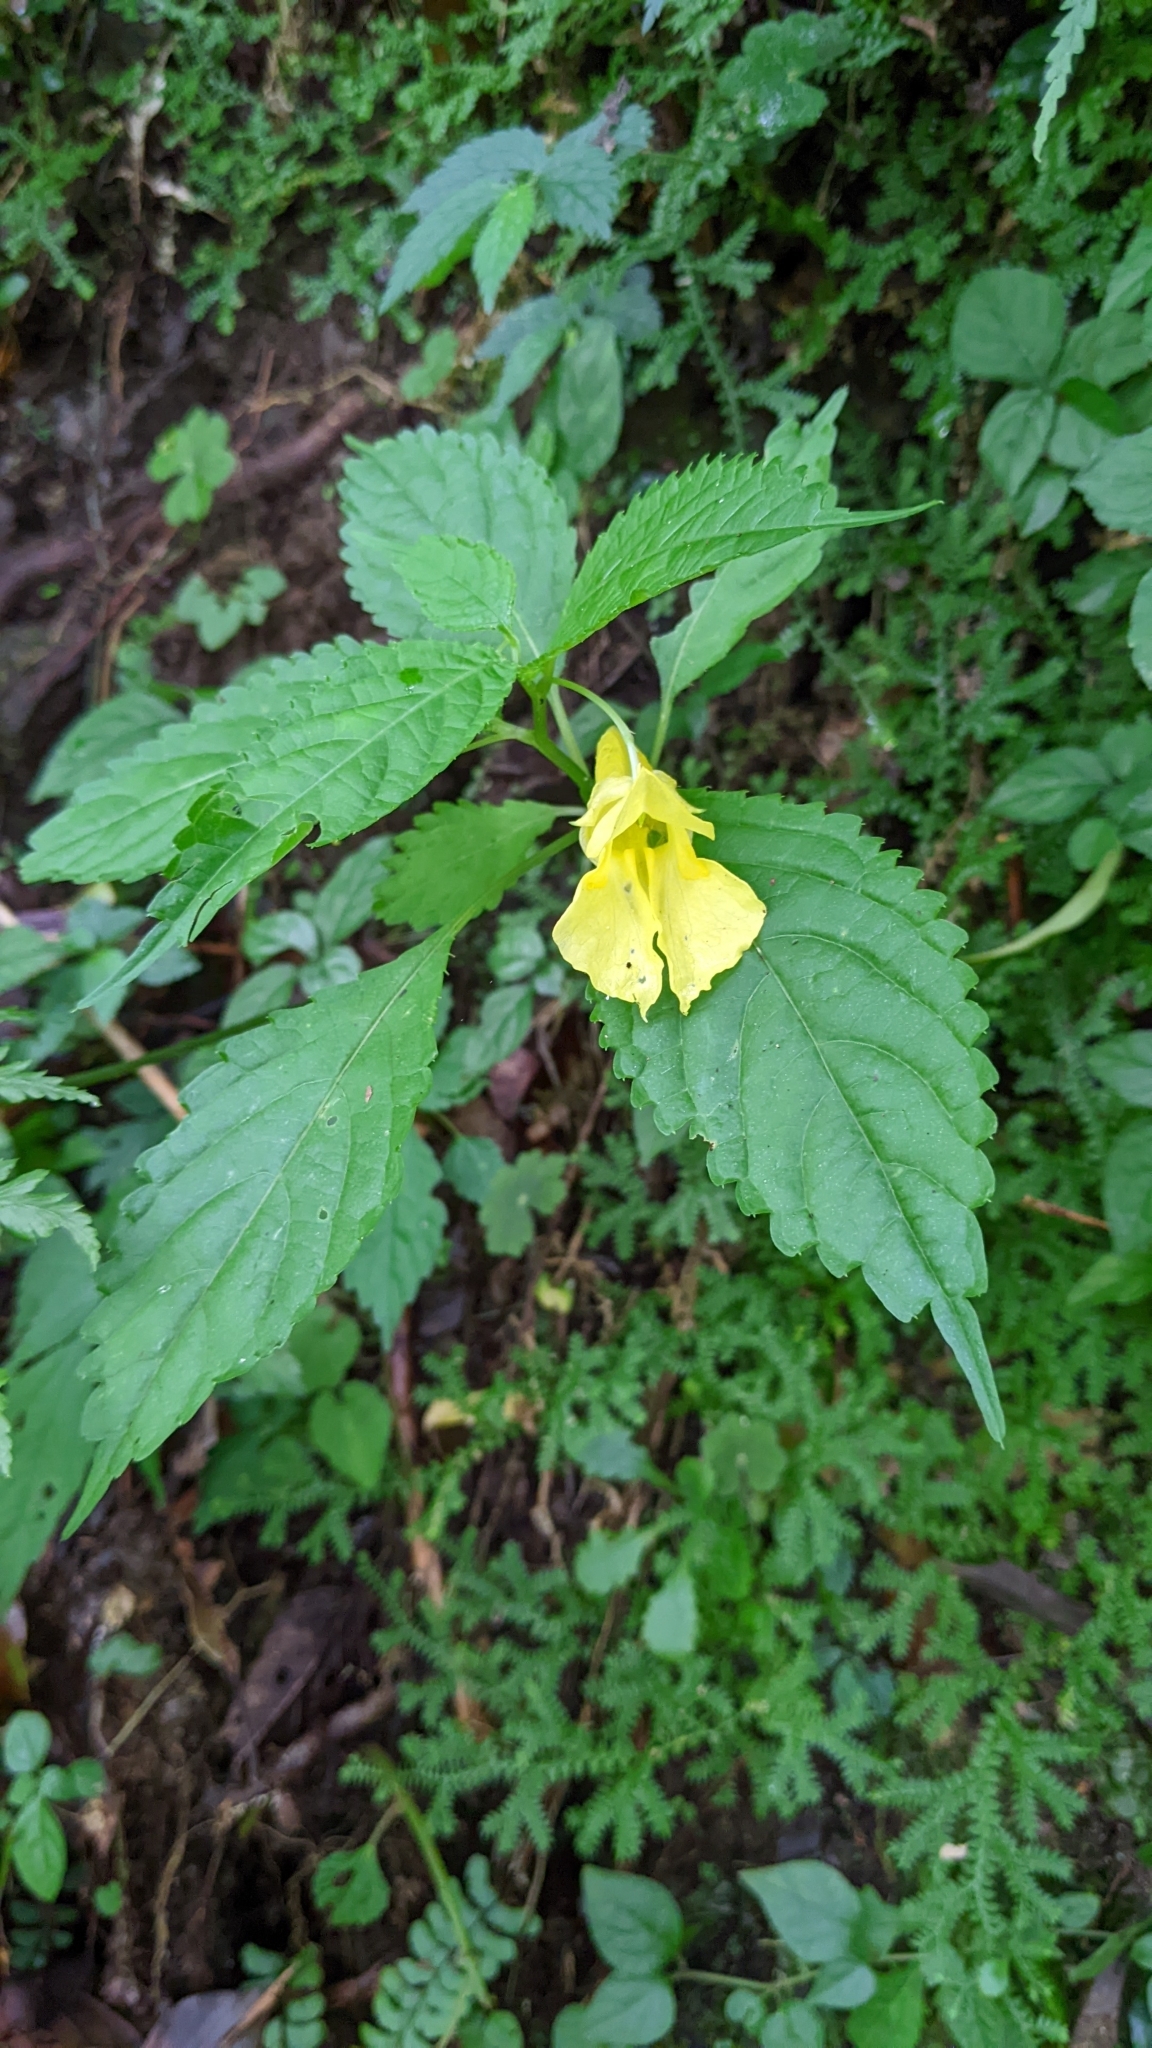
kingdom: Plantae
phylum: Tracheophyta
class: Magnoliopsida
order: Ericales
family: Balsaminaceae
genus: Impatiens
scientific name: Impatiens tayemonii
